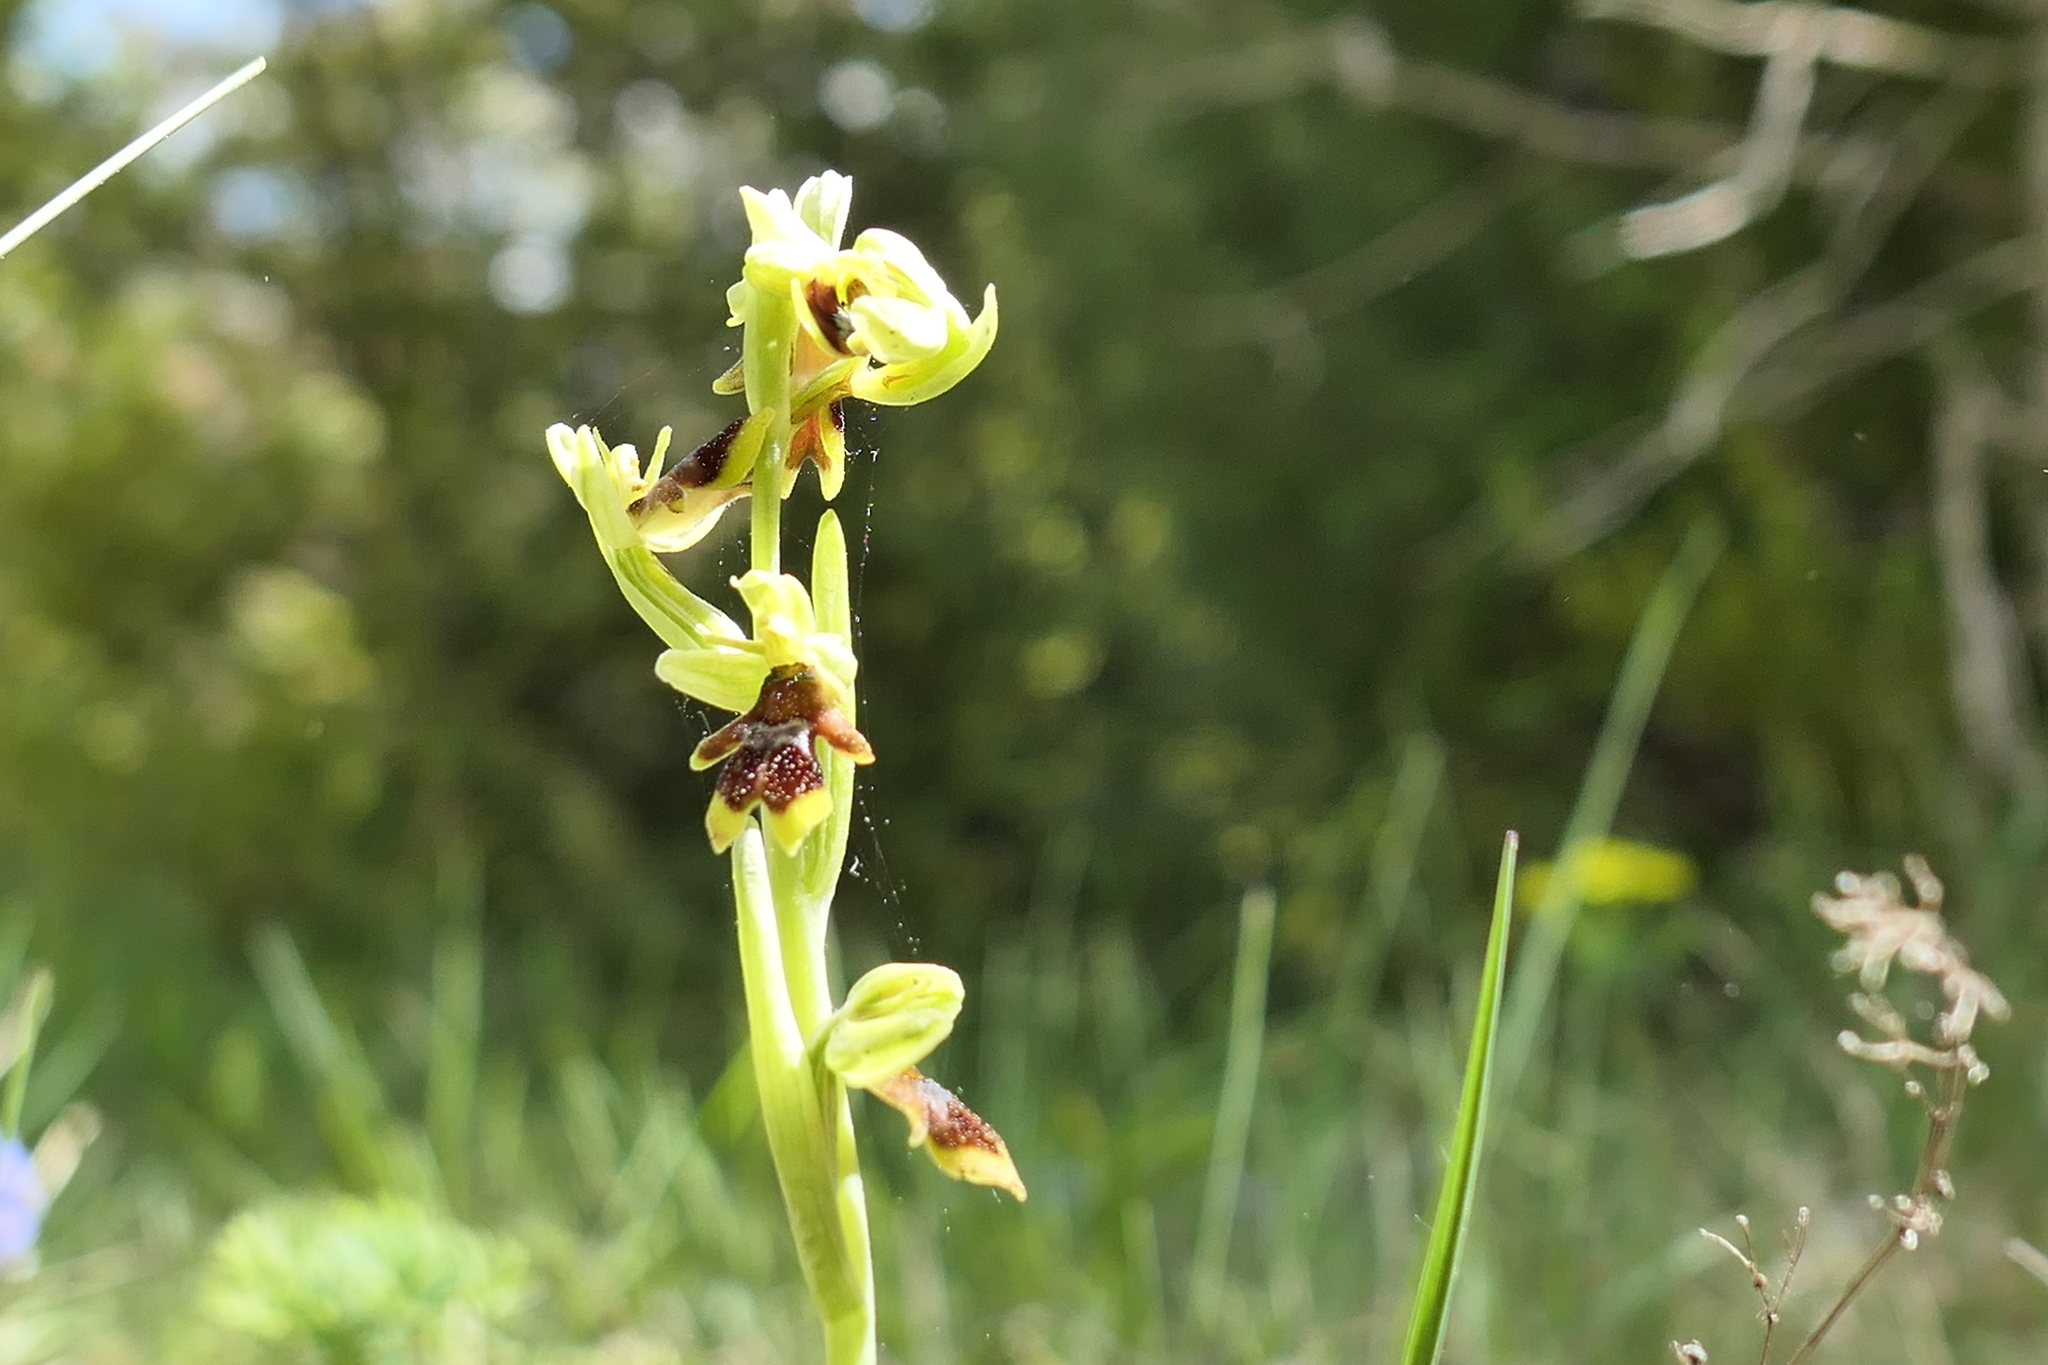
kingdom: Plantae
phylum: Tracheophyta
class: Liliopsida
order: Asparagales
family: Orchidaceae
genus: Ophrys
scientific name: Ophrys insectifera
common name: Fly orchid
